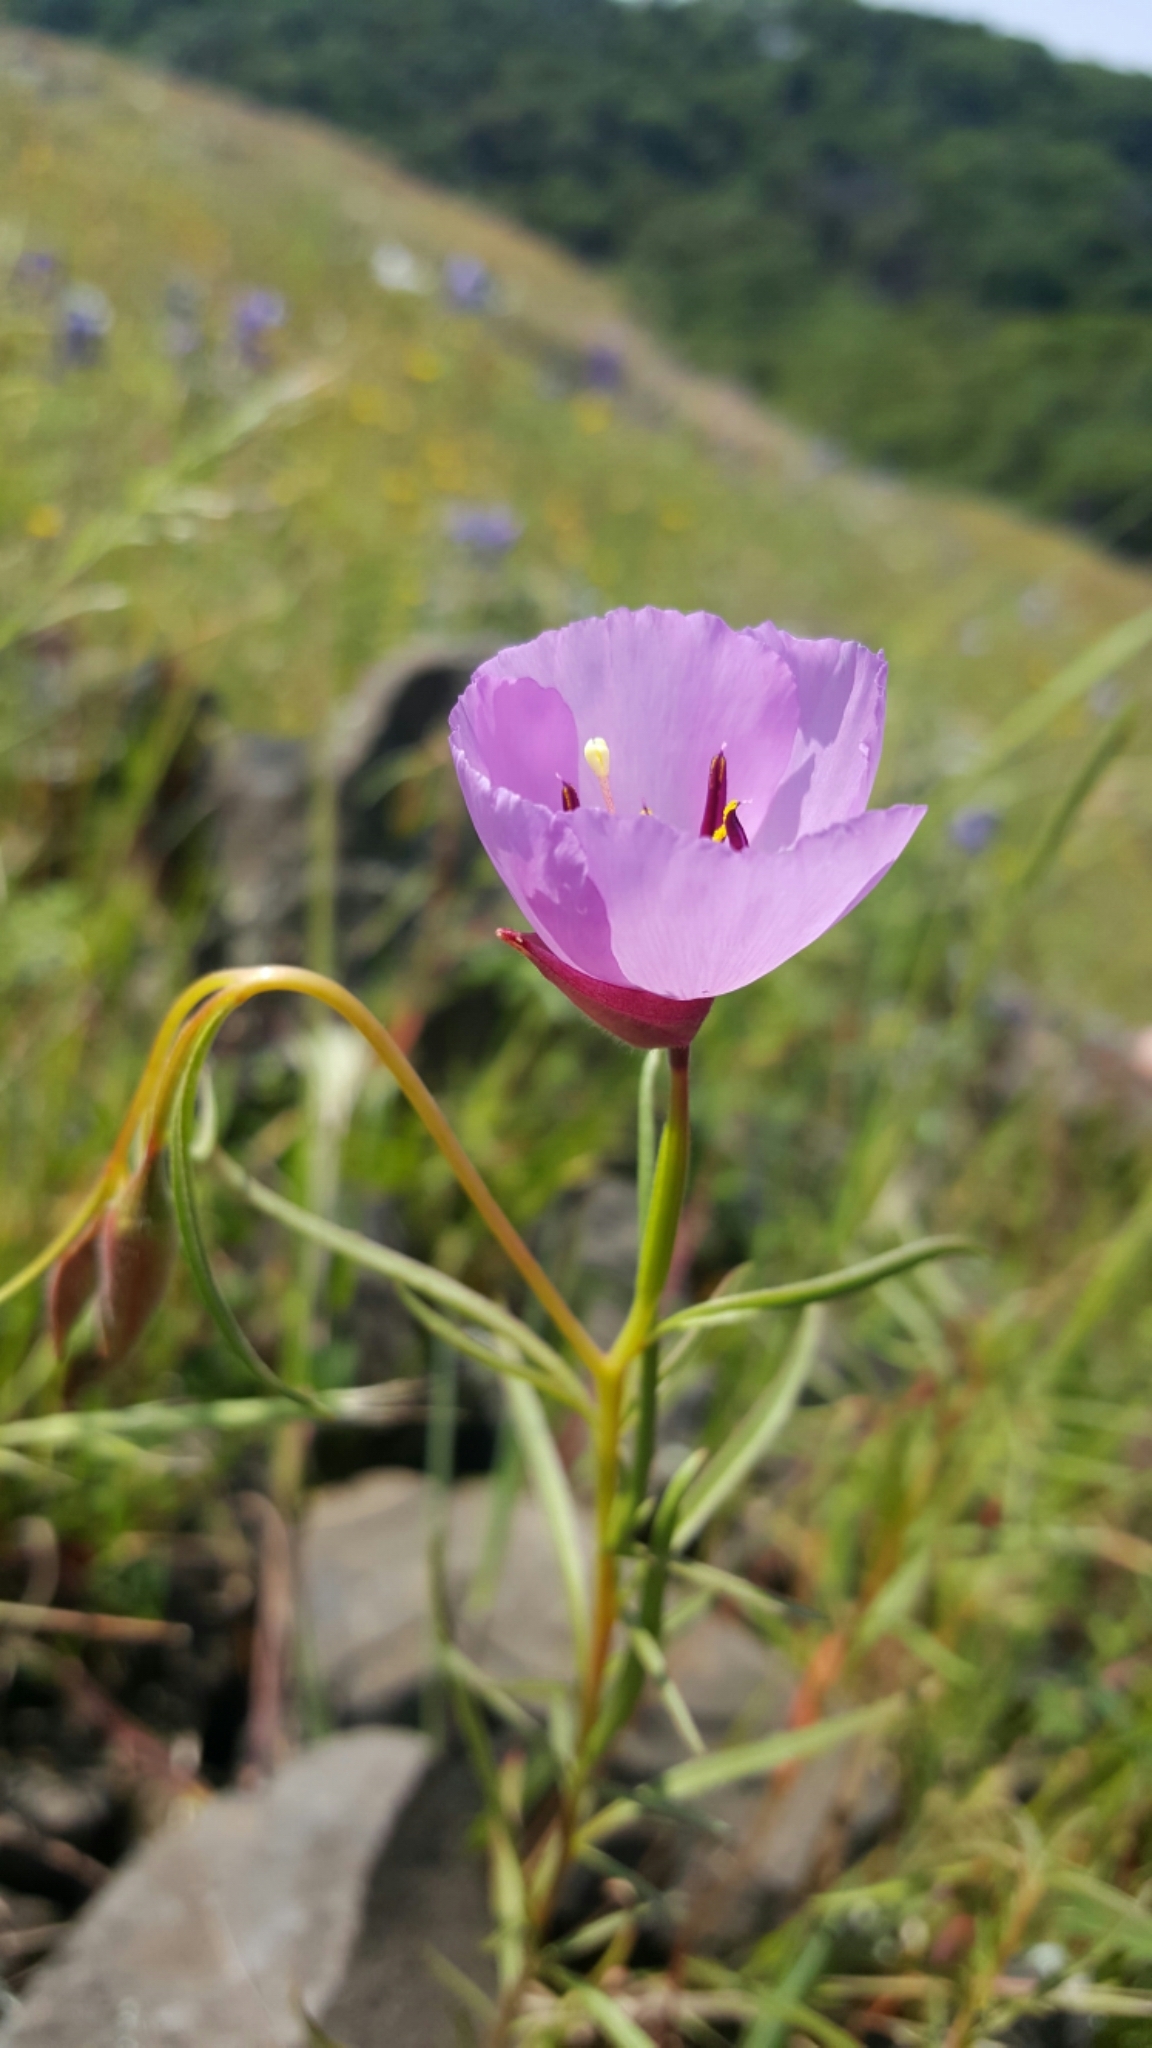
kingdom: Plantae
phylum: Tracheophyta
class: Magnoliopsida
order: Myrtales
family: Onagraceae
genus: Clarkia
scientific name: Clarkia arcuata
